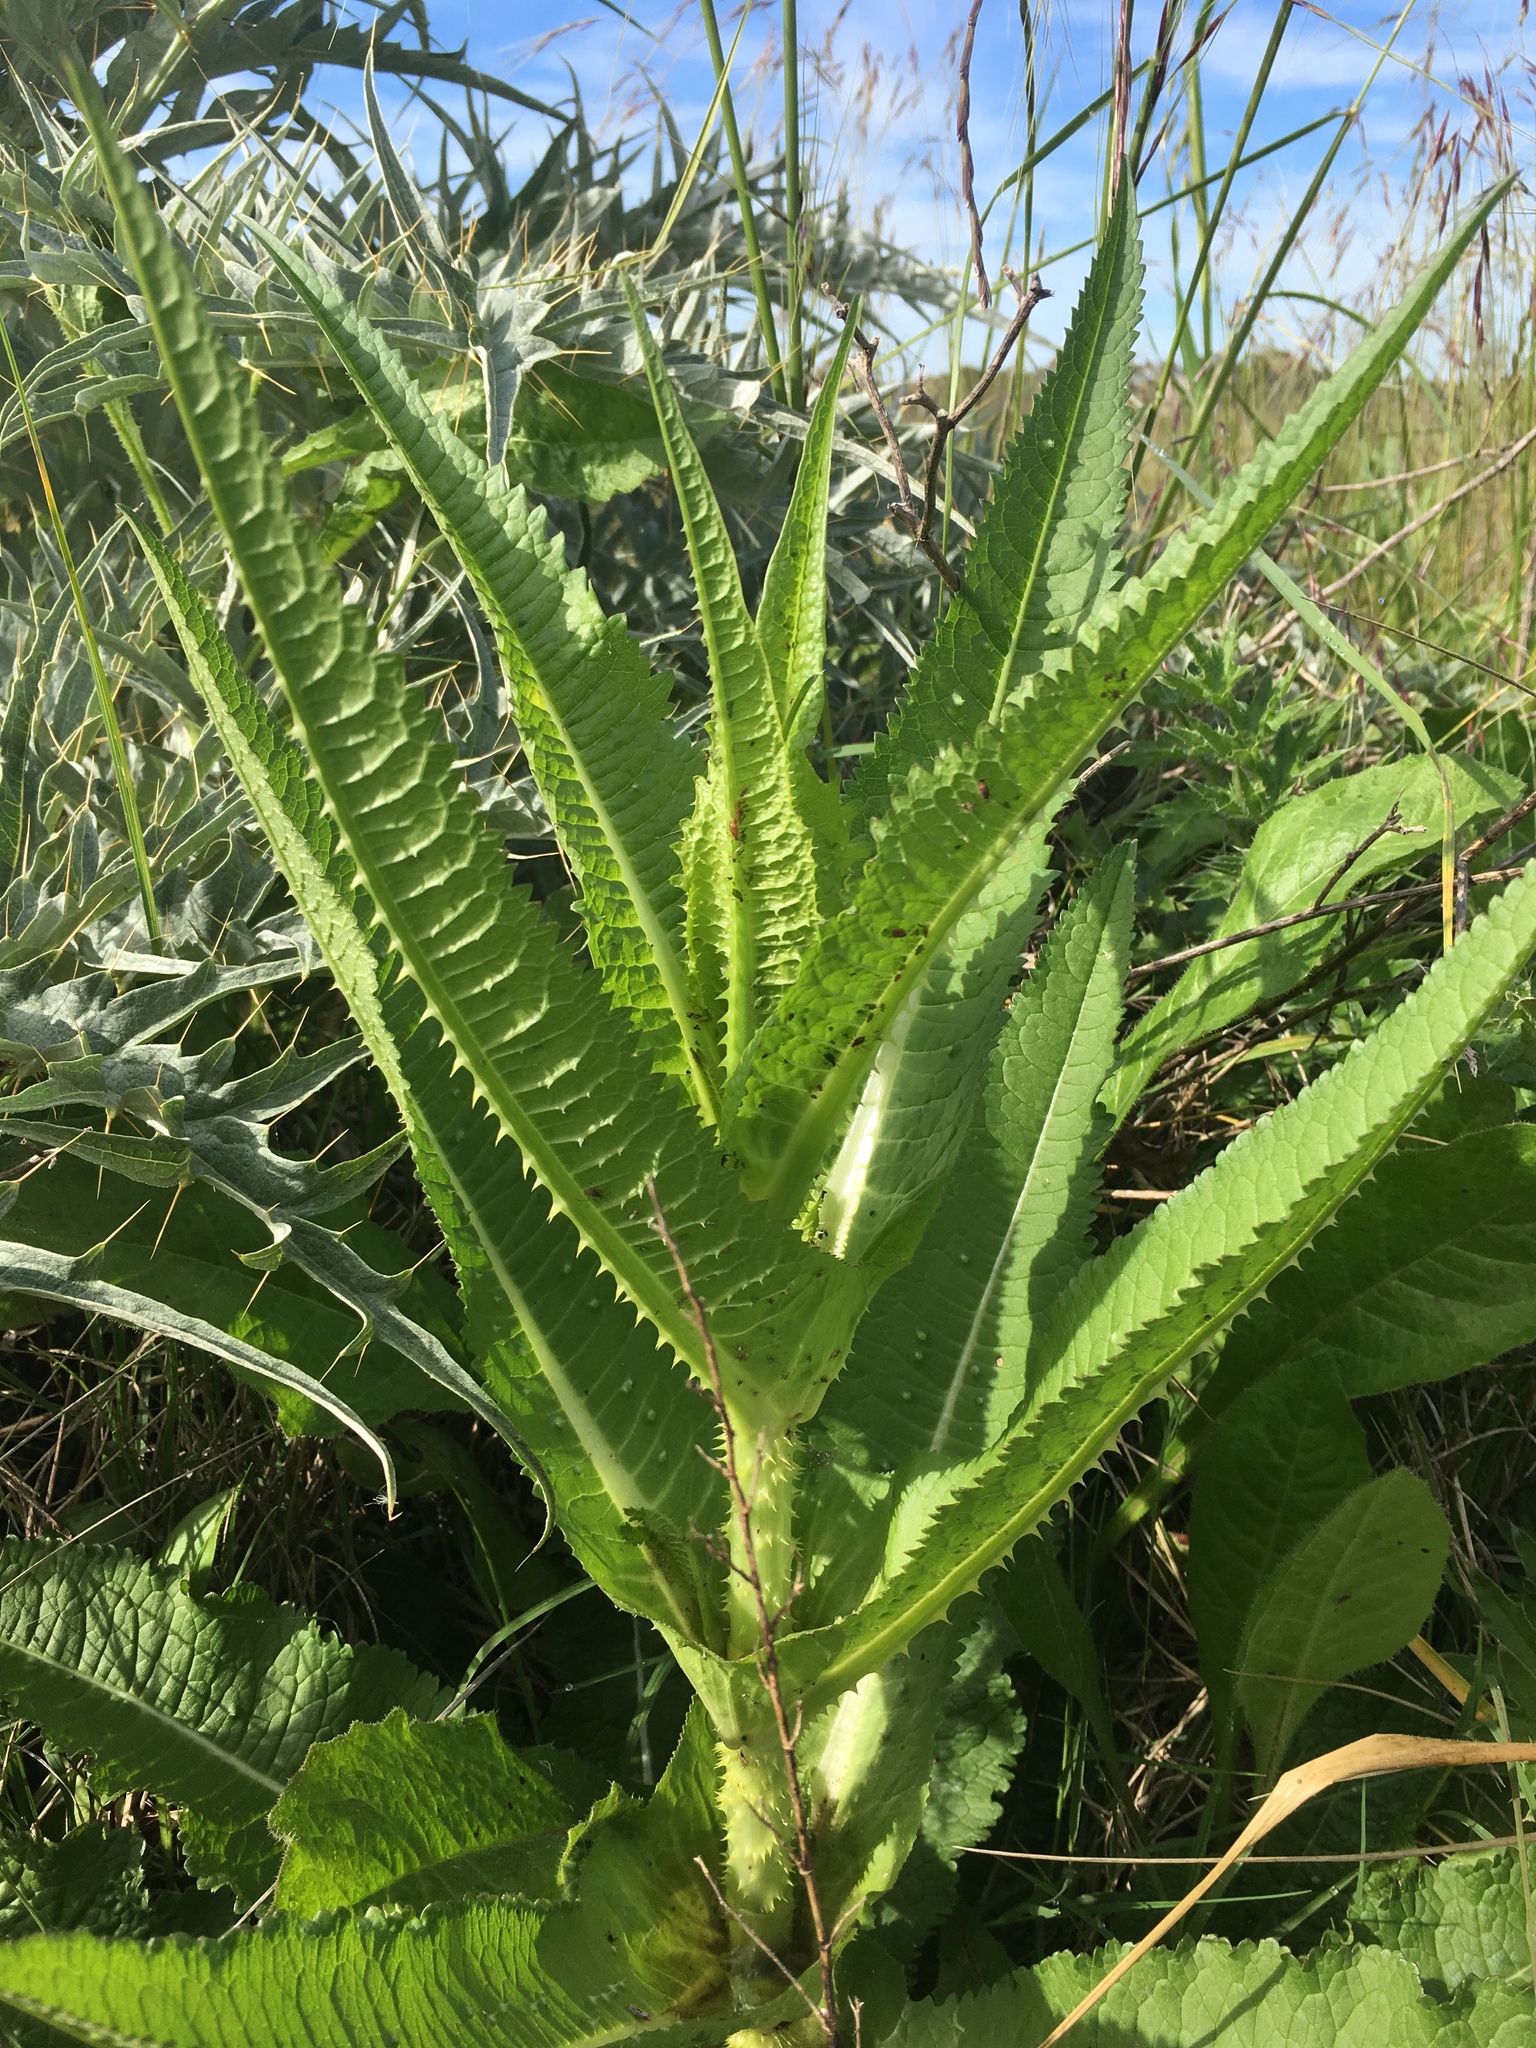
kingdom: Plantae
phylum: Tracheophyta
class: Magnoliopsida
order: Dipsacales
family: Caprifoliaceae
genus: Dipsacus
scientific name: Dipsacus fullonum
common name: Teasel
